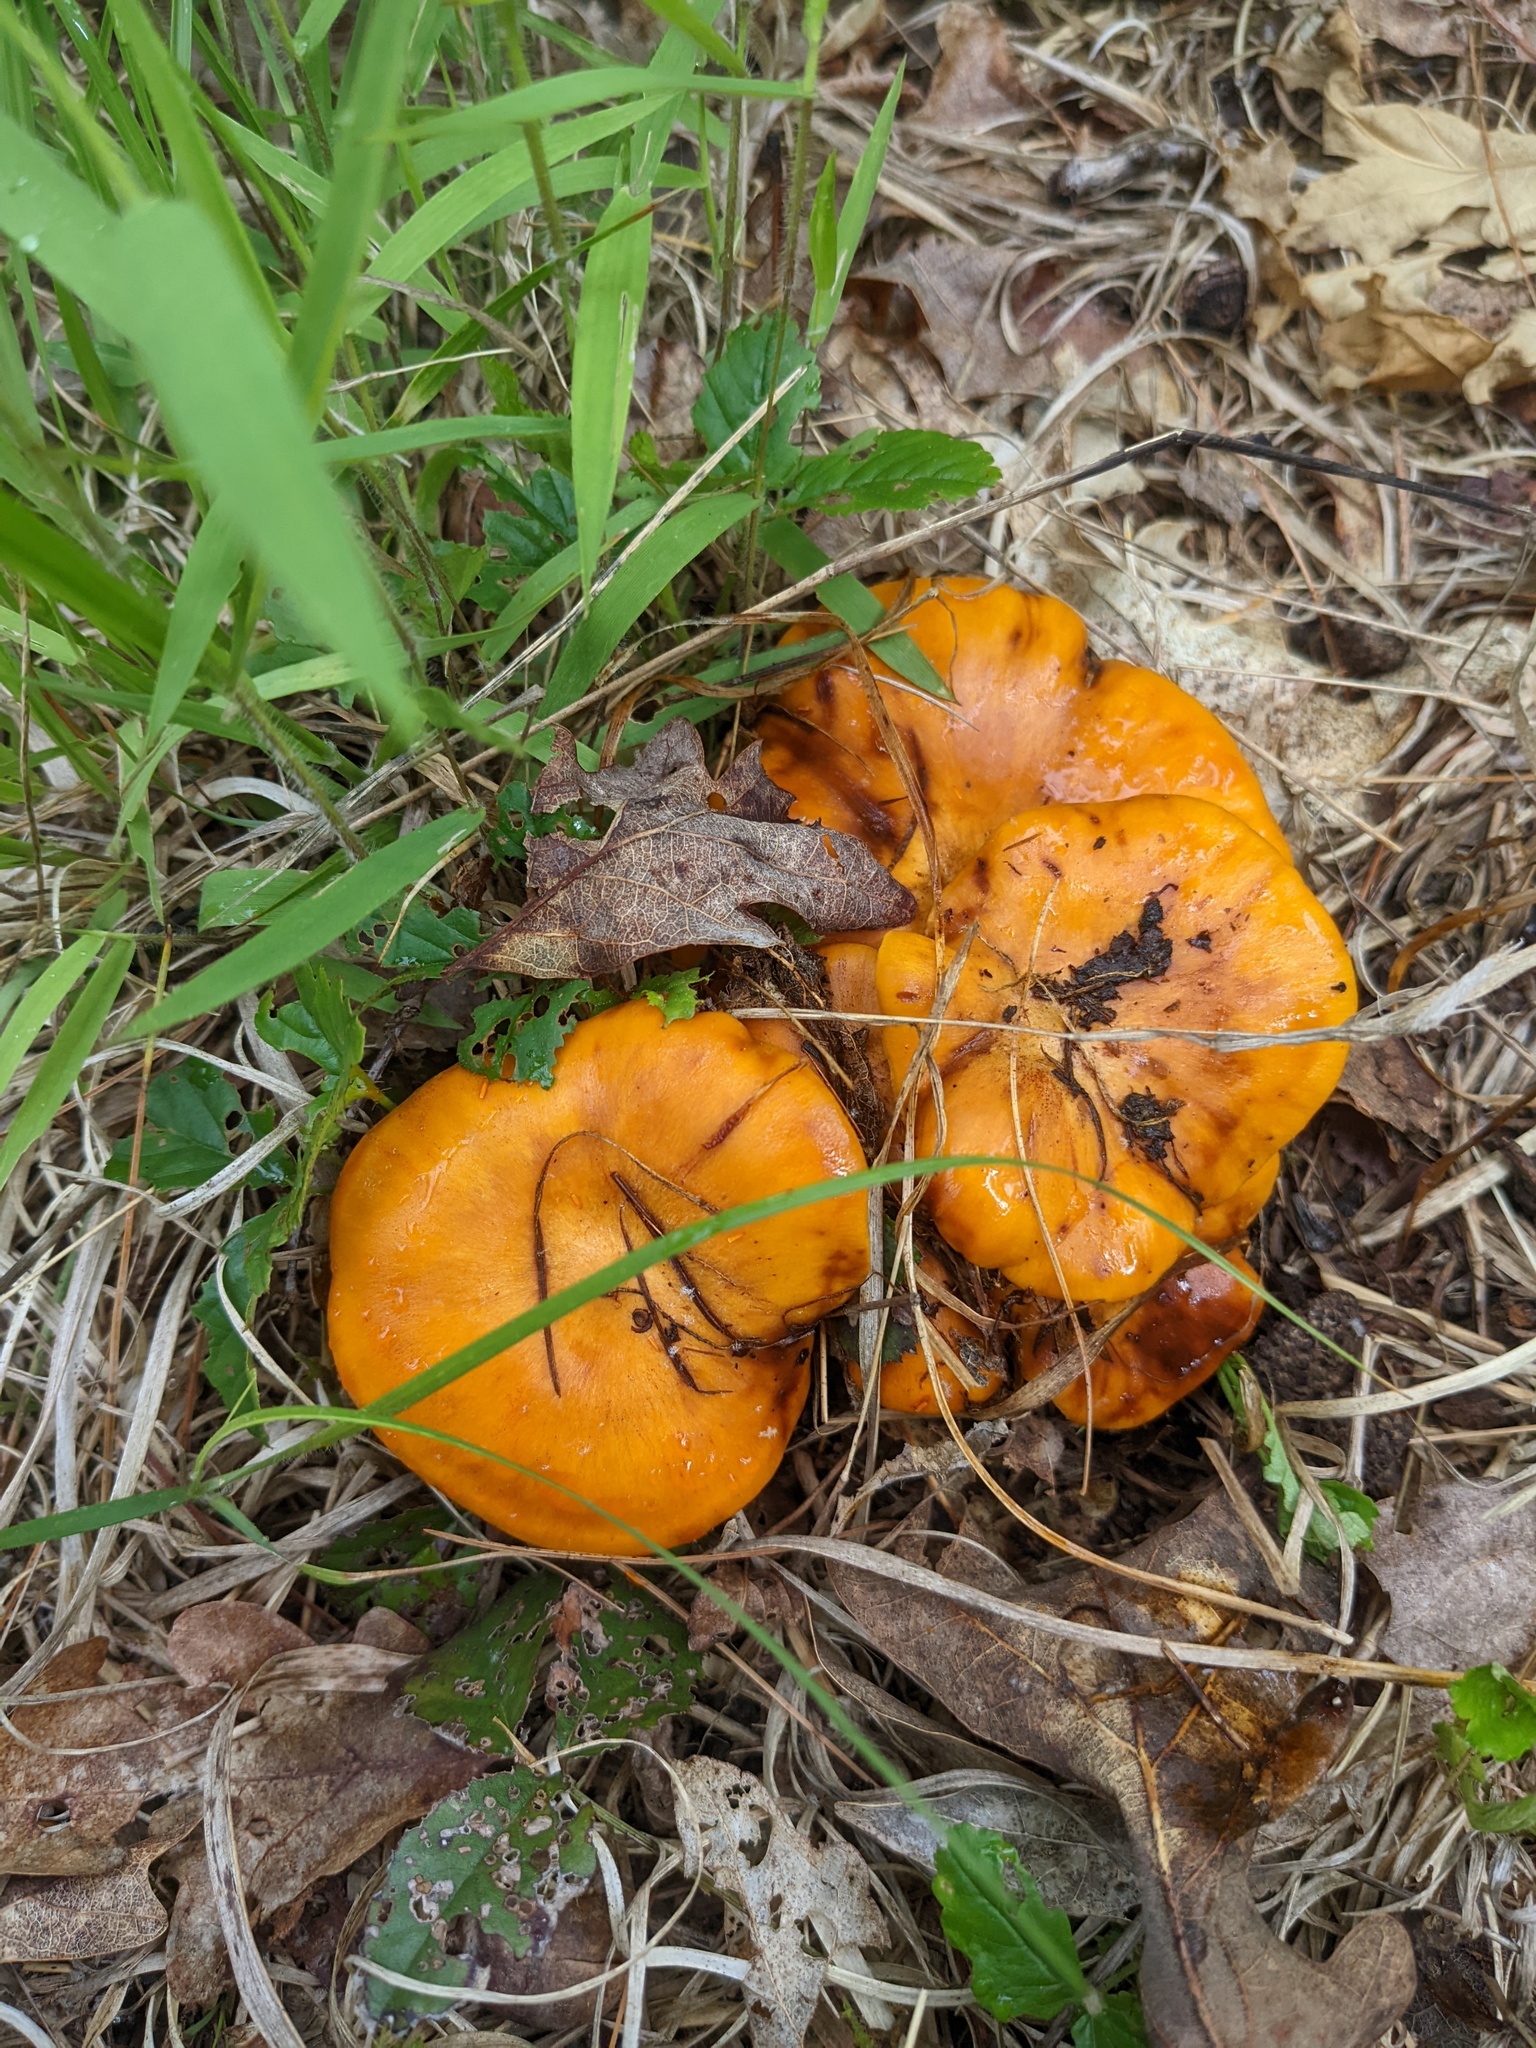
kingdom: Fungi
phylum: Basidiomycota
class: Agaricomycetes
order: Agaricales
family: Omphalotaceae
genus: Omphalotus
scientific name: Omphalotus illudens
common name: Jack o lantern
